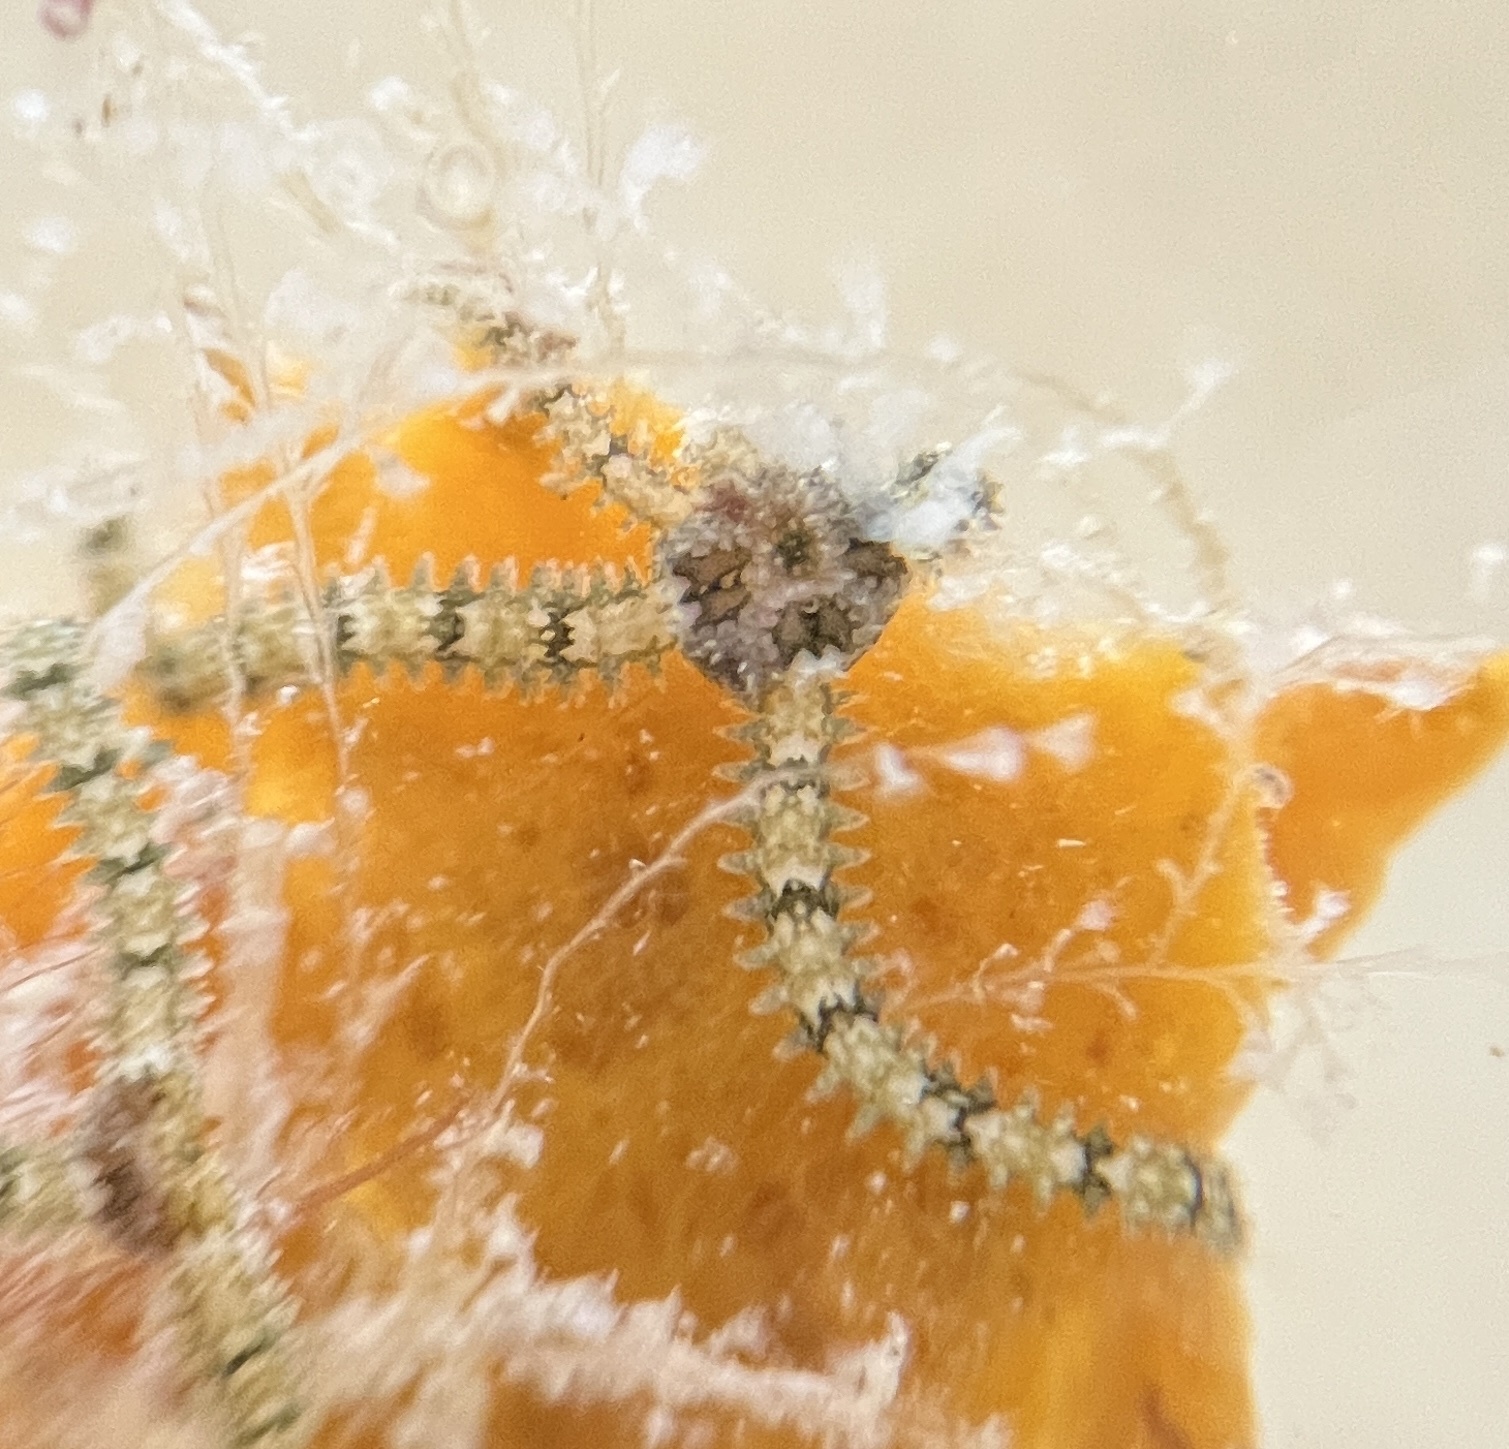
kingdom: Animalia
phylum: Echinodermata
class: Ophiuroidea
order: Amphilepidida
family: Ophiactidae
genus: Ophiactis
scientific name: Ophiactis savignyi
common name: Savigny's brittle star
